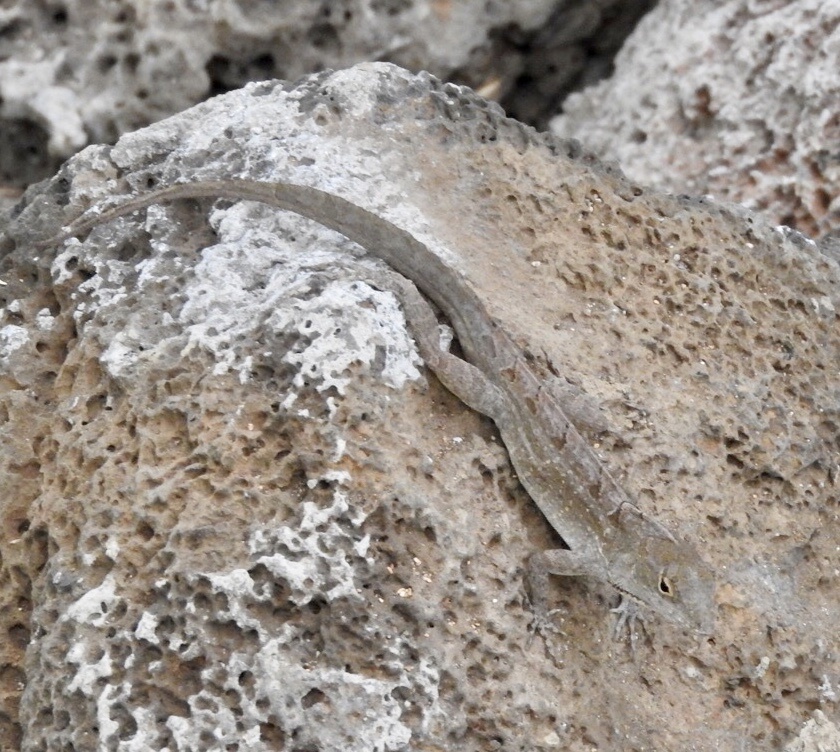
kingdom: Animalia
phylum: Chordata
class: Squamata
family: Dactyloidae
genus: Anolis
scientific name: Anolis sagrei
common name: Brown anole
